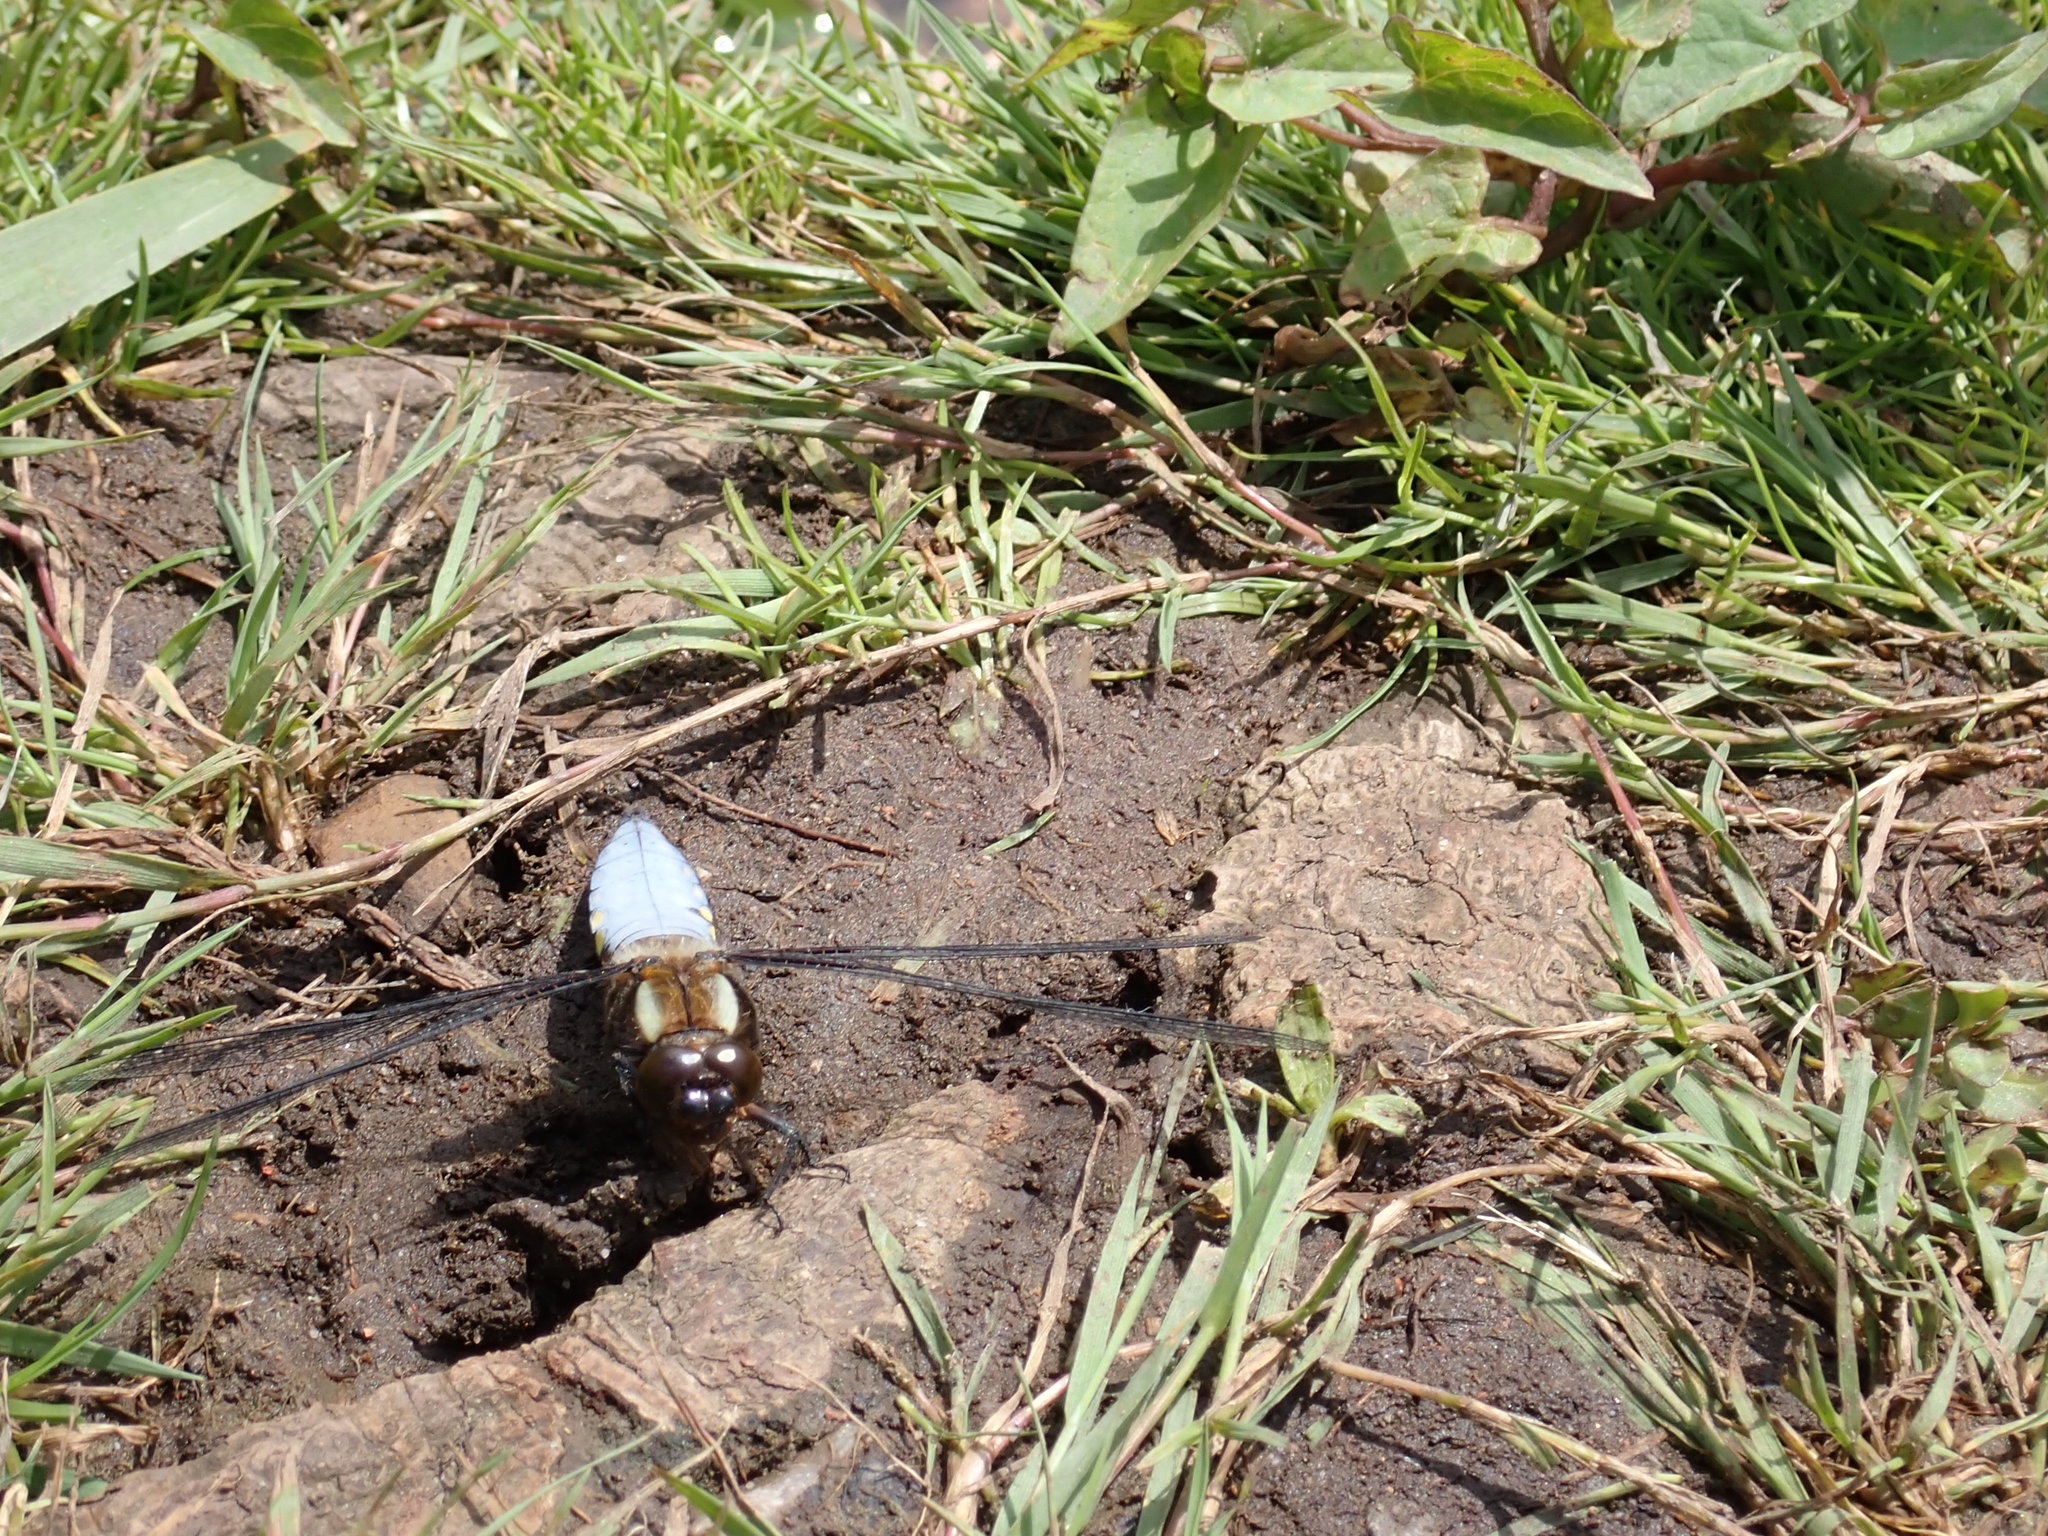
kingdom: Animalia
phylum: Arthropoda
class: Insecta
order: Odonata
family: Libellulidae
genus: Libellula
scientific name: Libellula depressa
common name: Broad-bodied chaser
